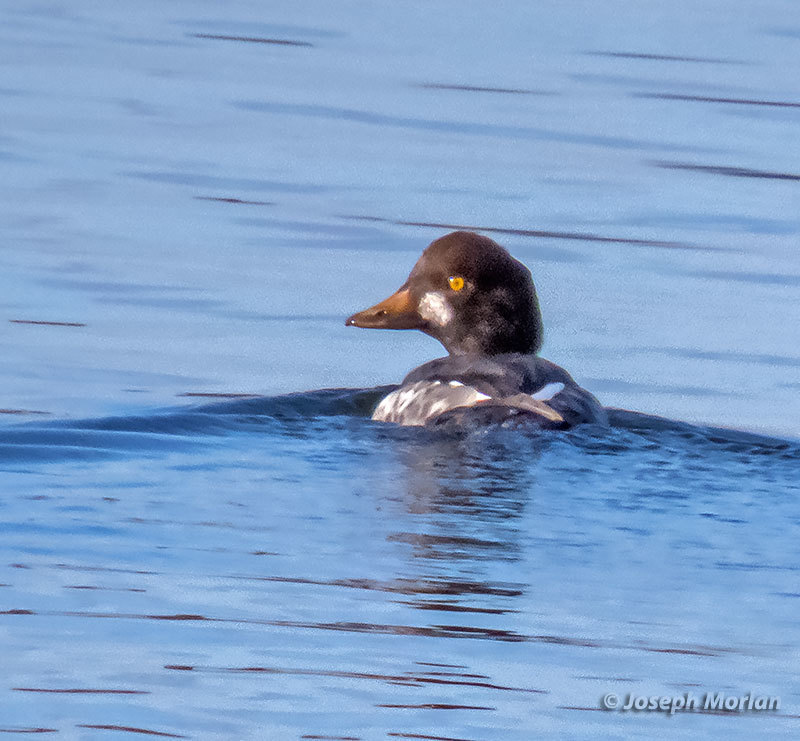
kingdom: Animalia
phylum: Chordata
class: Aves
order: Anseriformes
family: Anatidae
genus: Bucephala
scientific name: Bucephala clangula
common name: Common goldeneye
